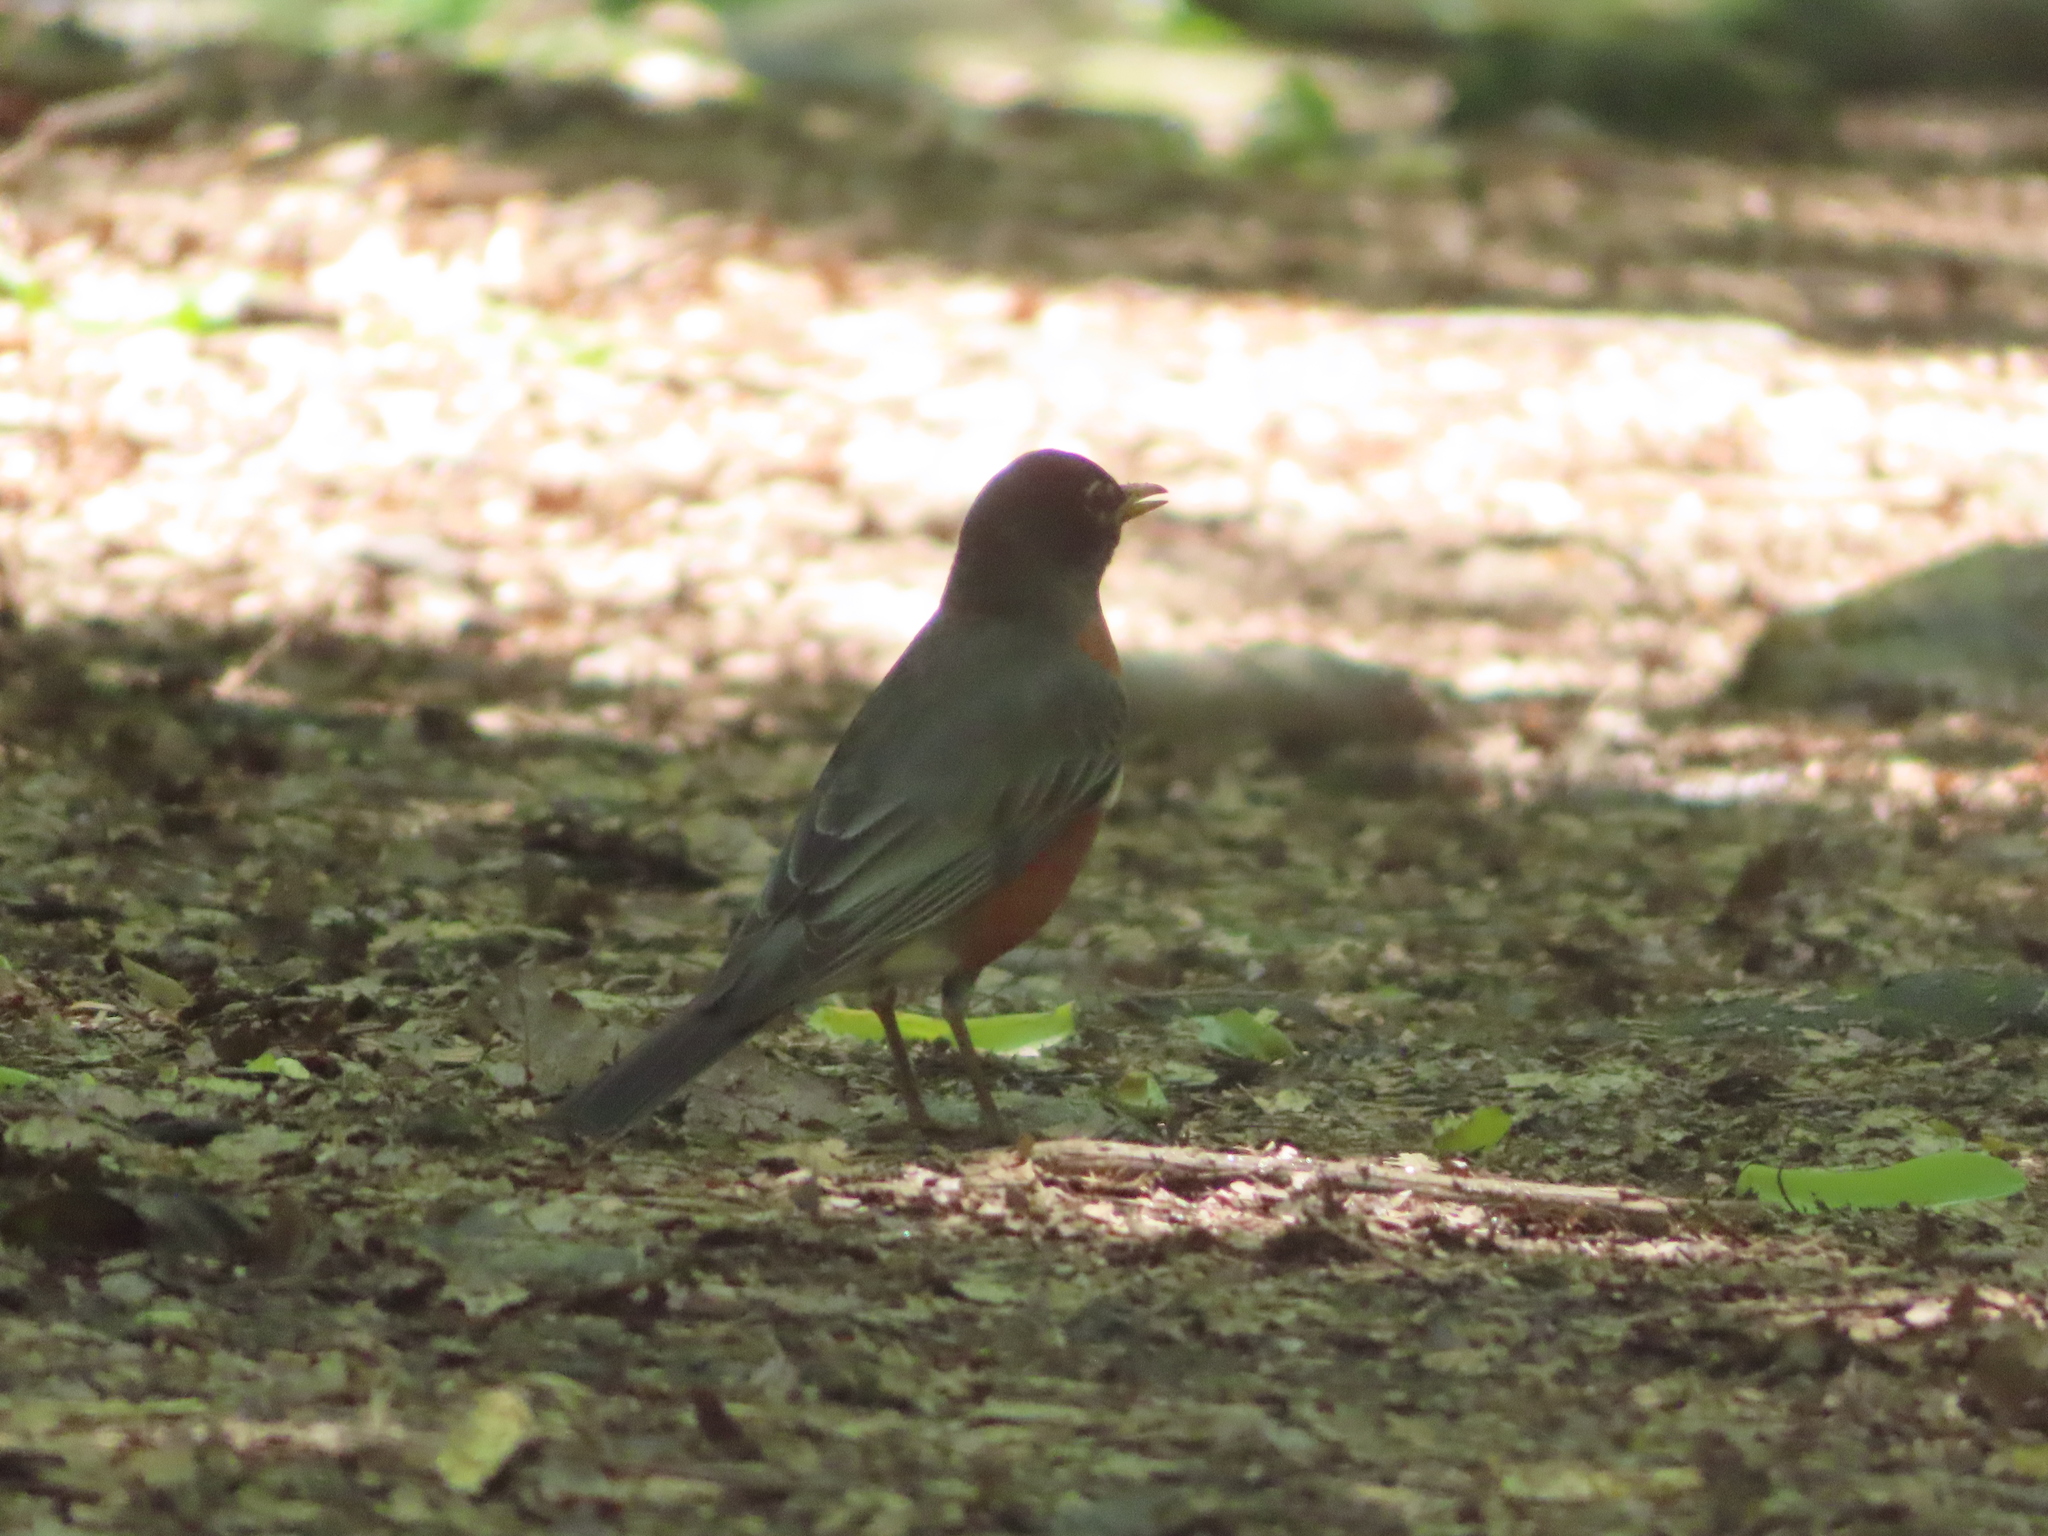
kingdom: Animalia
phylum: Chordata
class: Aves
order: Passeriformes
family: Turdidae
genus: Turdus
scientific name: Turdus migratorius
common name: American robin
